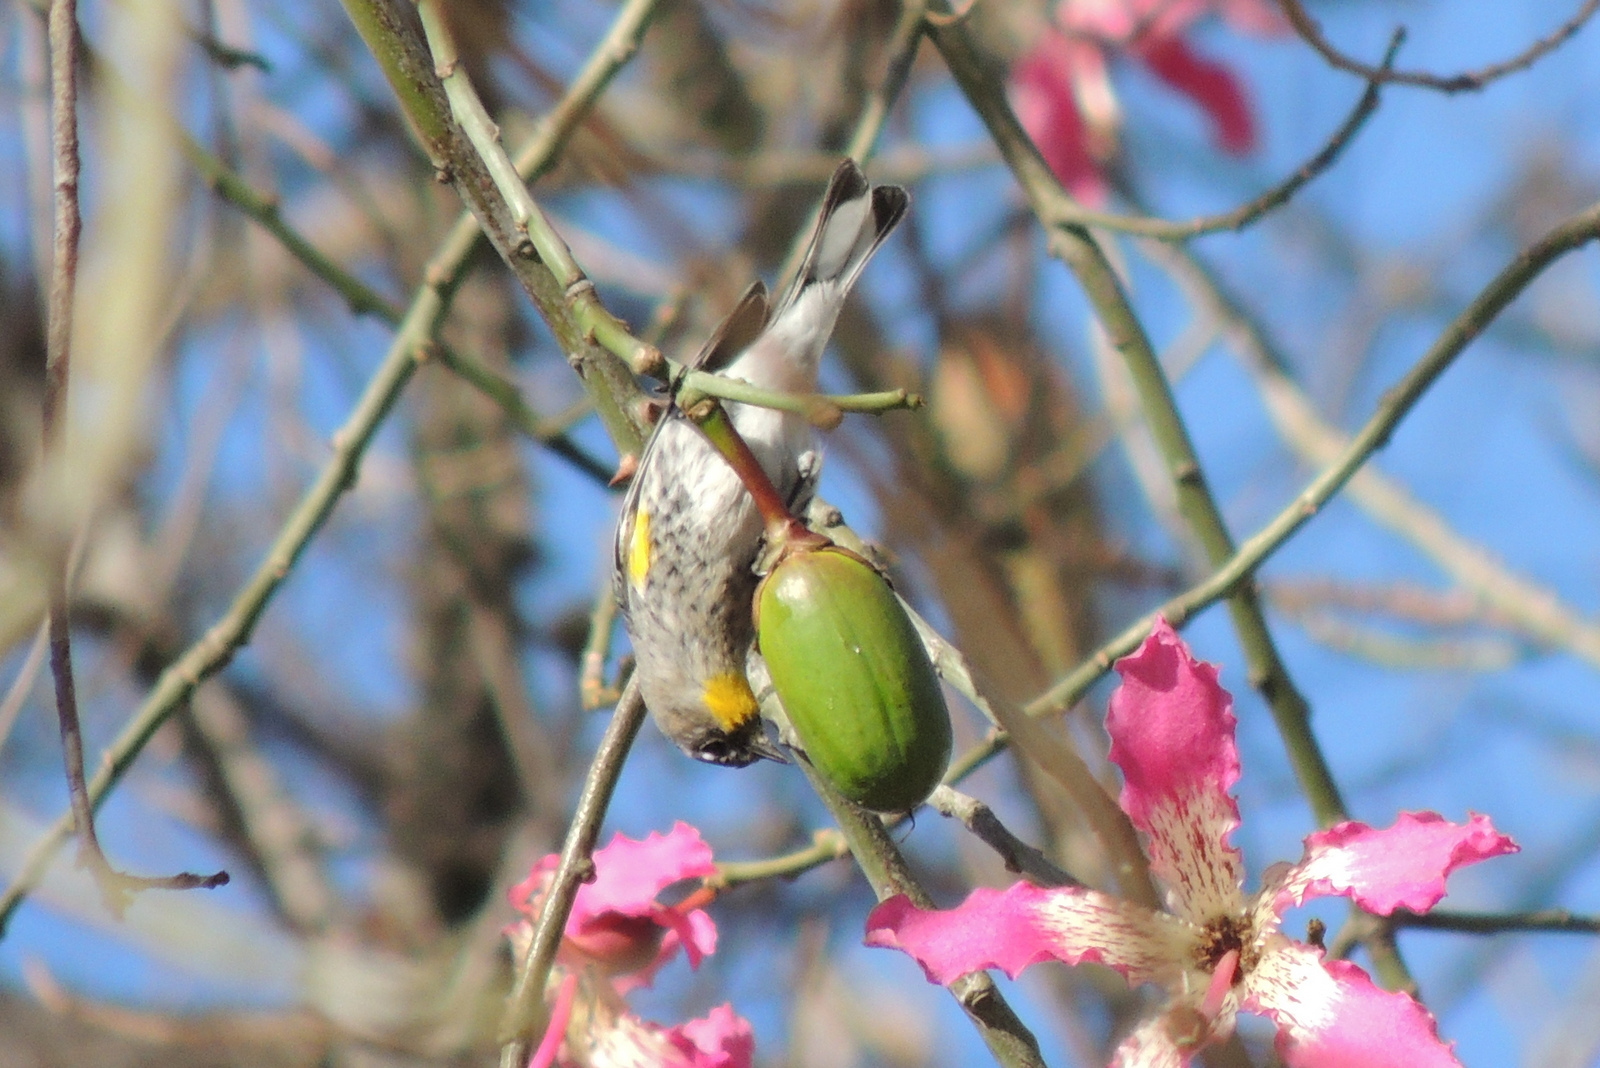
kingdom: Animalia
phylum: Chordata
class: Aves
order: Passeriformes
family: Parulidae
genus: Setophaga
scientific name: Setophaga coronata
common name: Myrtle warbler
